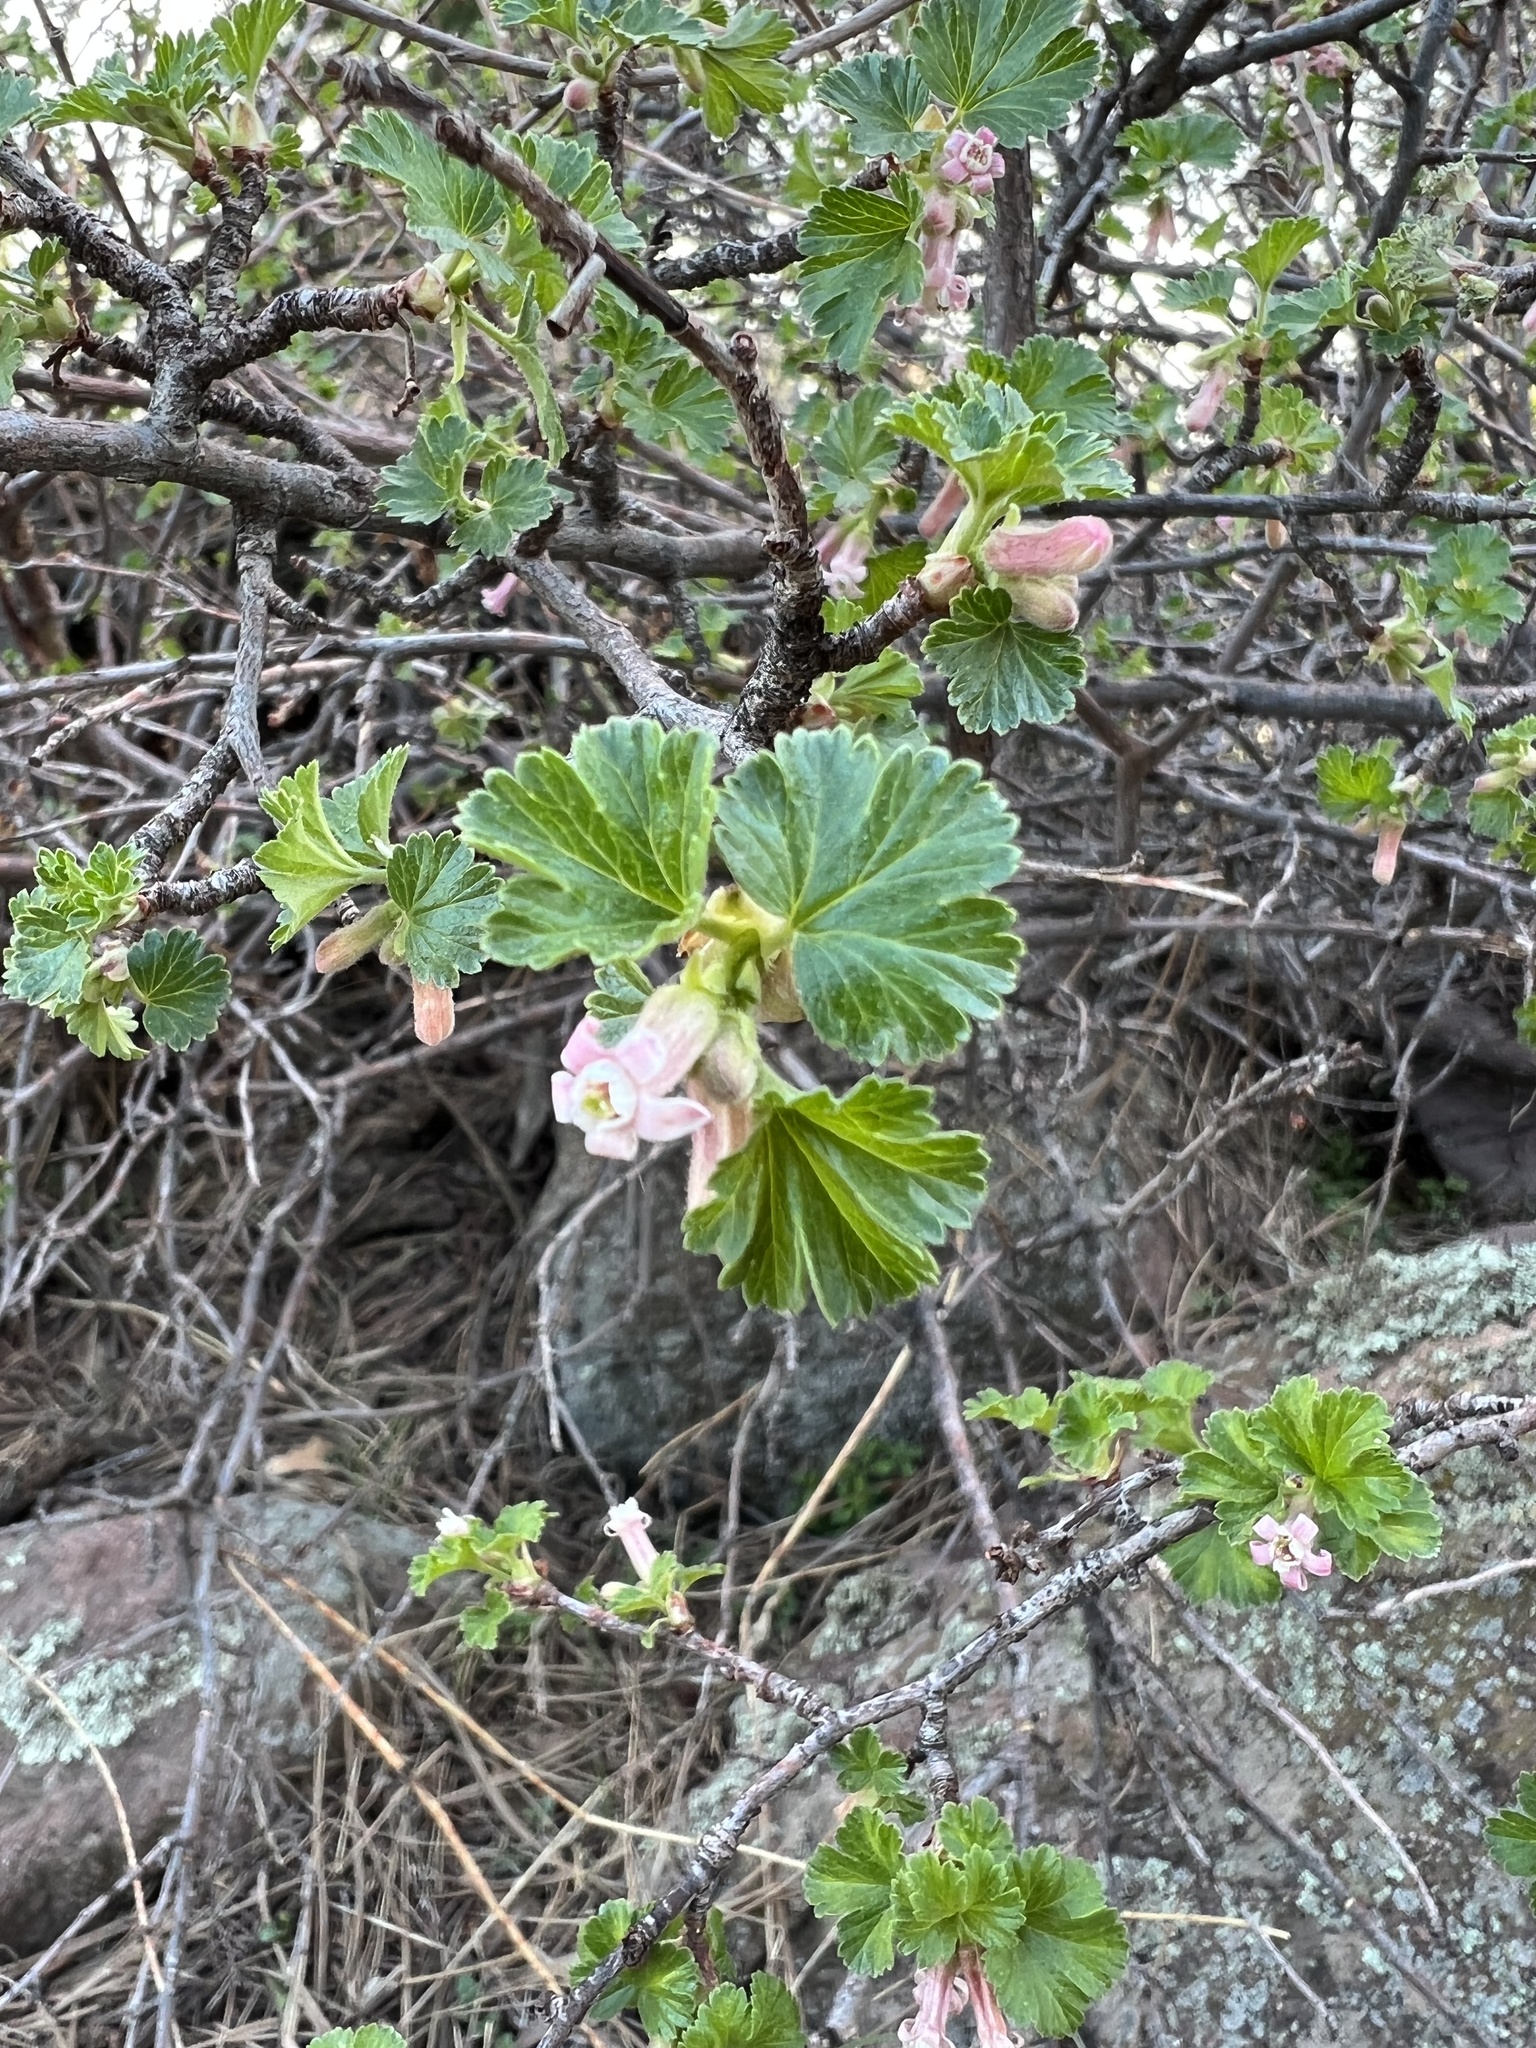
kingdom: Plantae
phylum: Tracheophyta
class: Magnoliopsida
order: Saxifragales
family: Grossulariaceae
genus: Ribes
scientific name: Ribes cereum
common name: Wax currant
